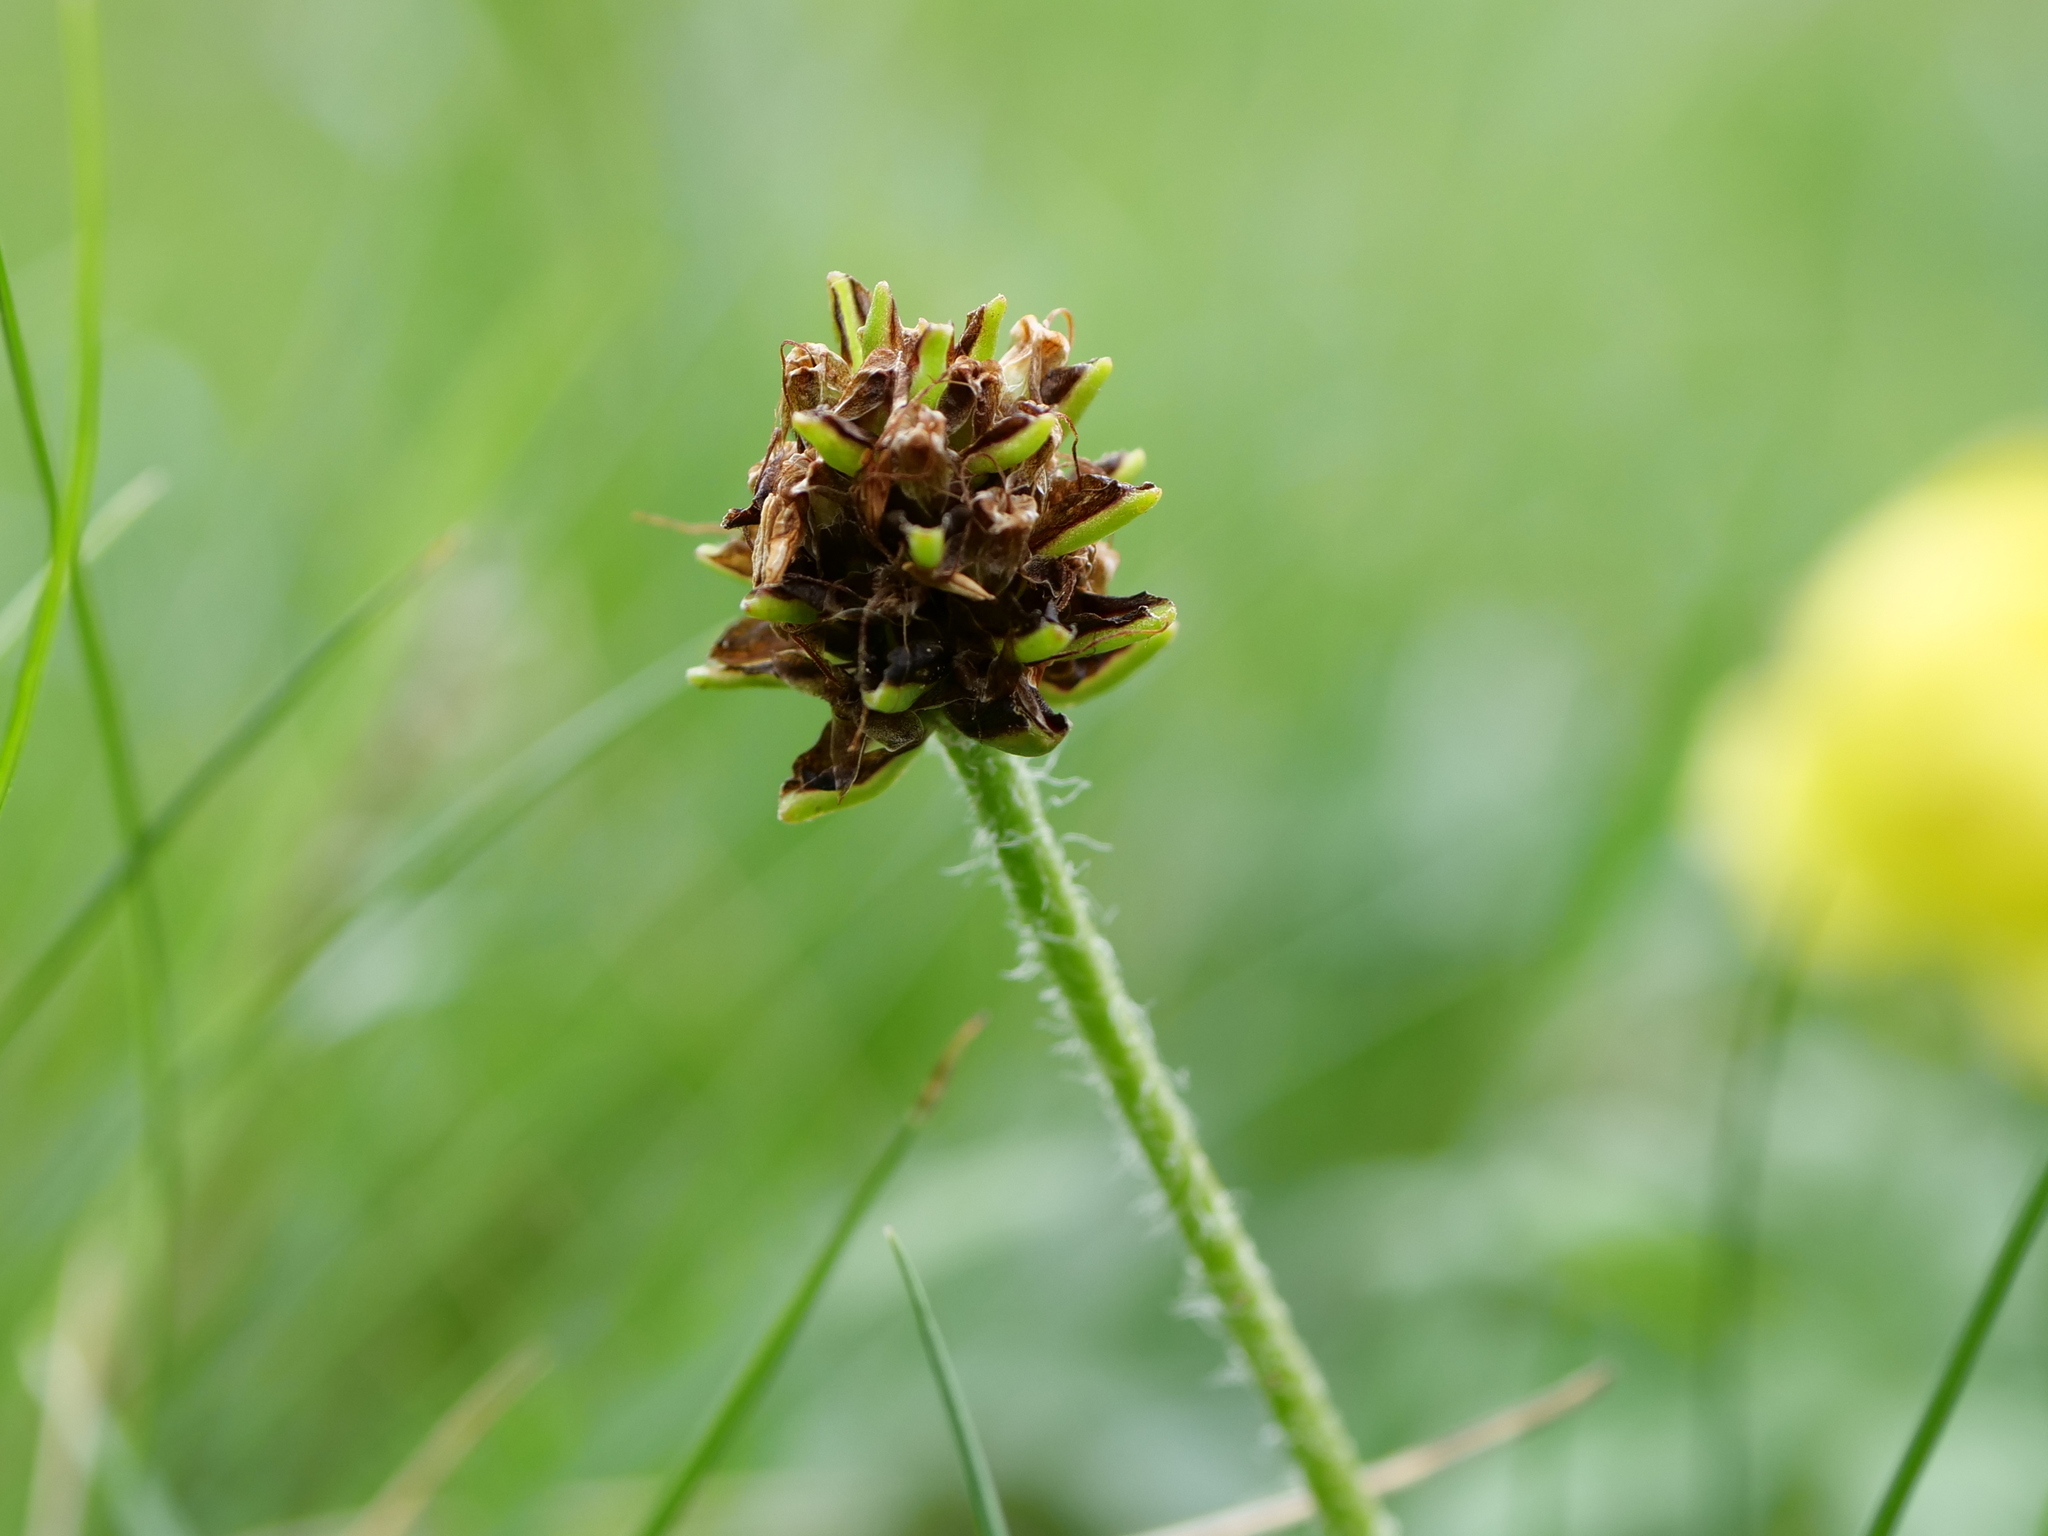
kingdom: Plantae
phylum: Tracheophyta
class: Magnoliopsida
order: Lamiales
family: Plantaginaceae
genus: Plantago
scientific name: Plantago atrata
